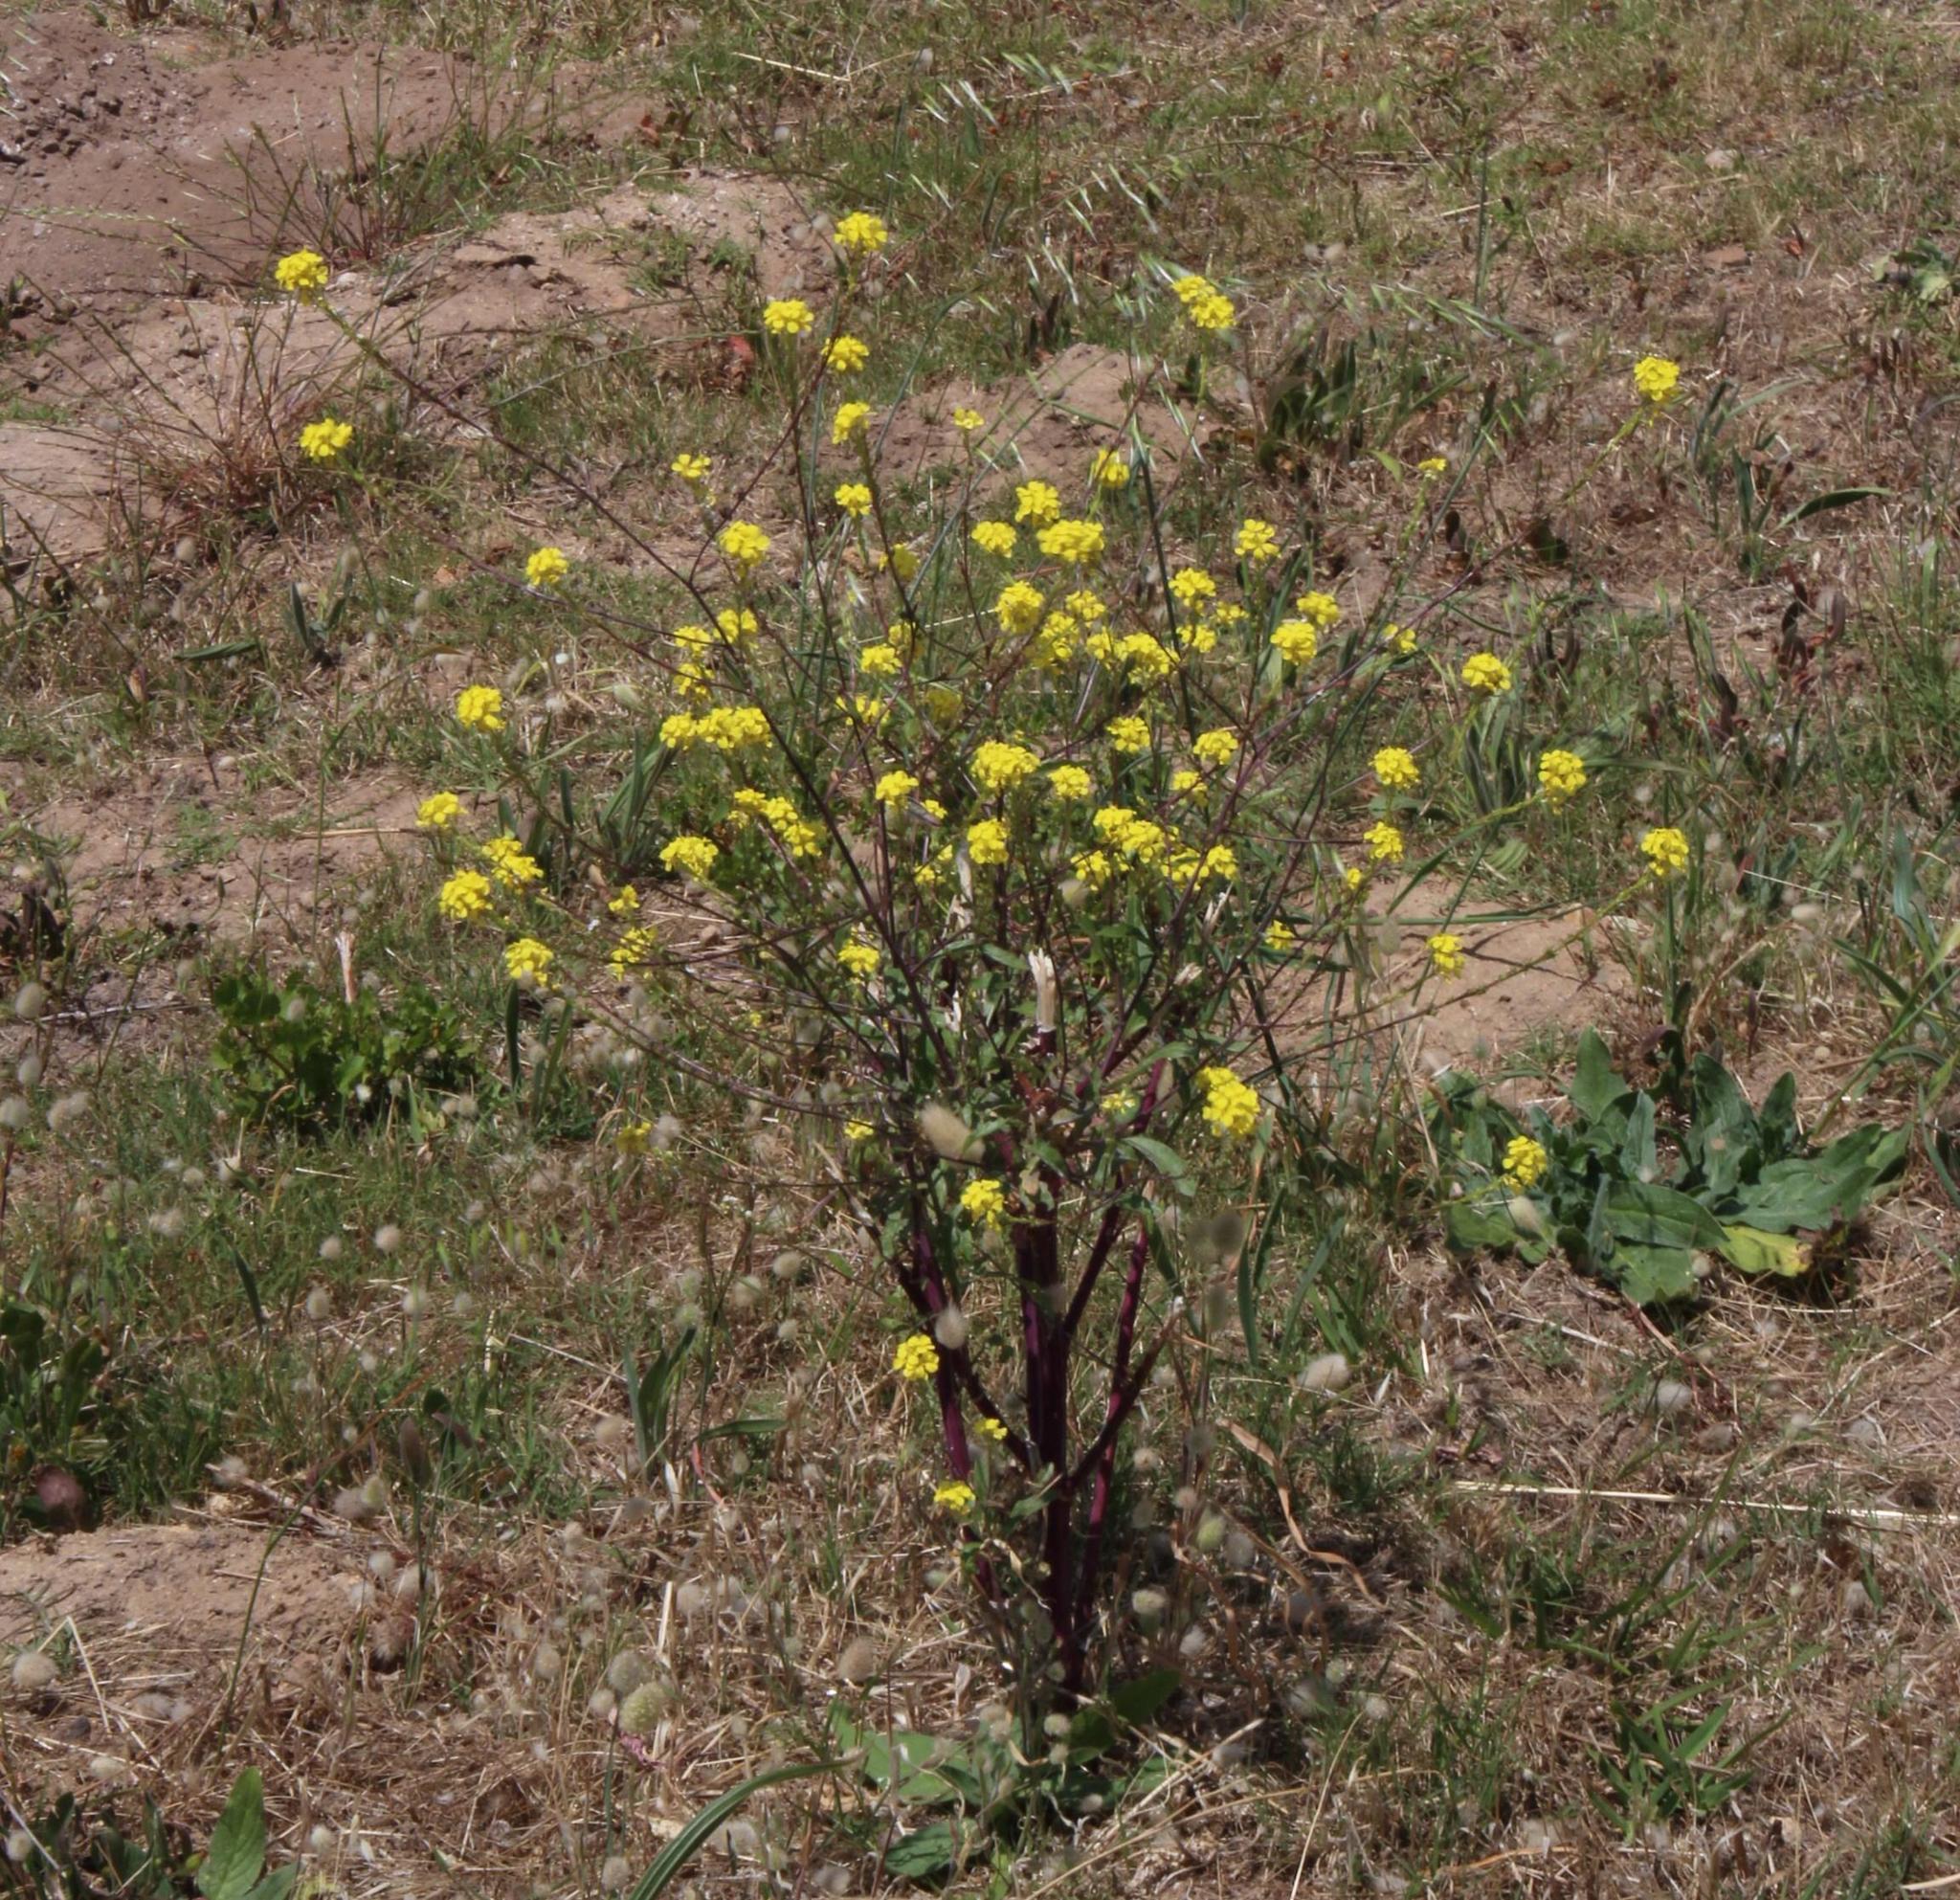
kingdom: Plantae
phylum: Tracheophyta
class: Magnoliopsida
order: Brassicales
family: Brassicaceae
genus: Rapistrum
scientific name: Rapistrum rugosum
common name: Annual bastardcabbage
